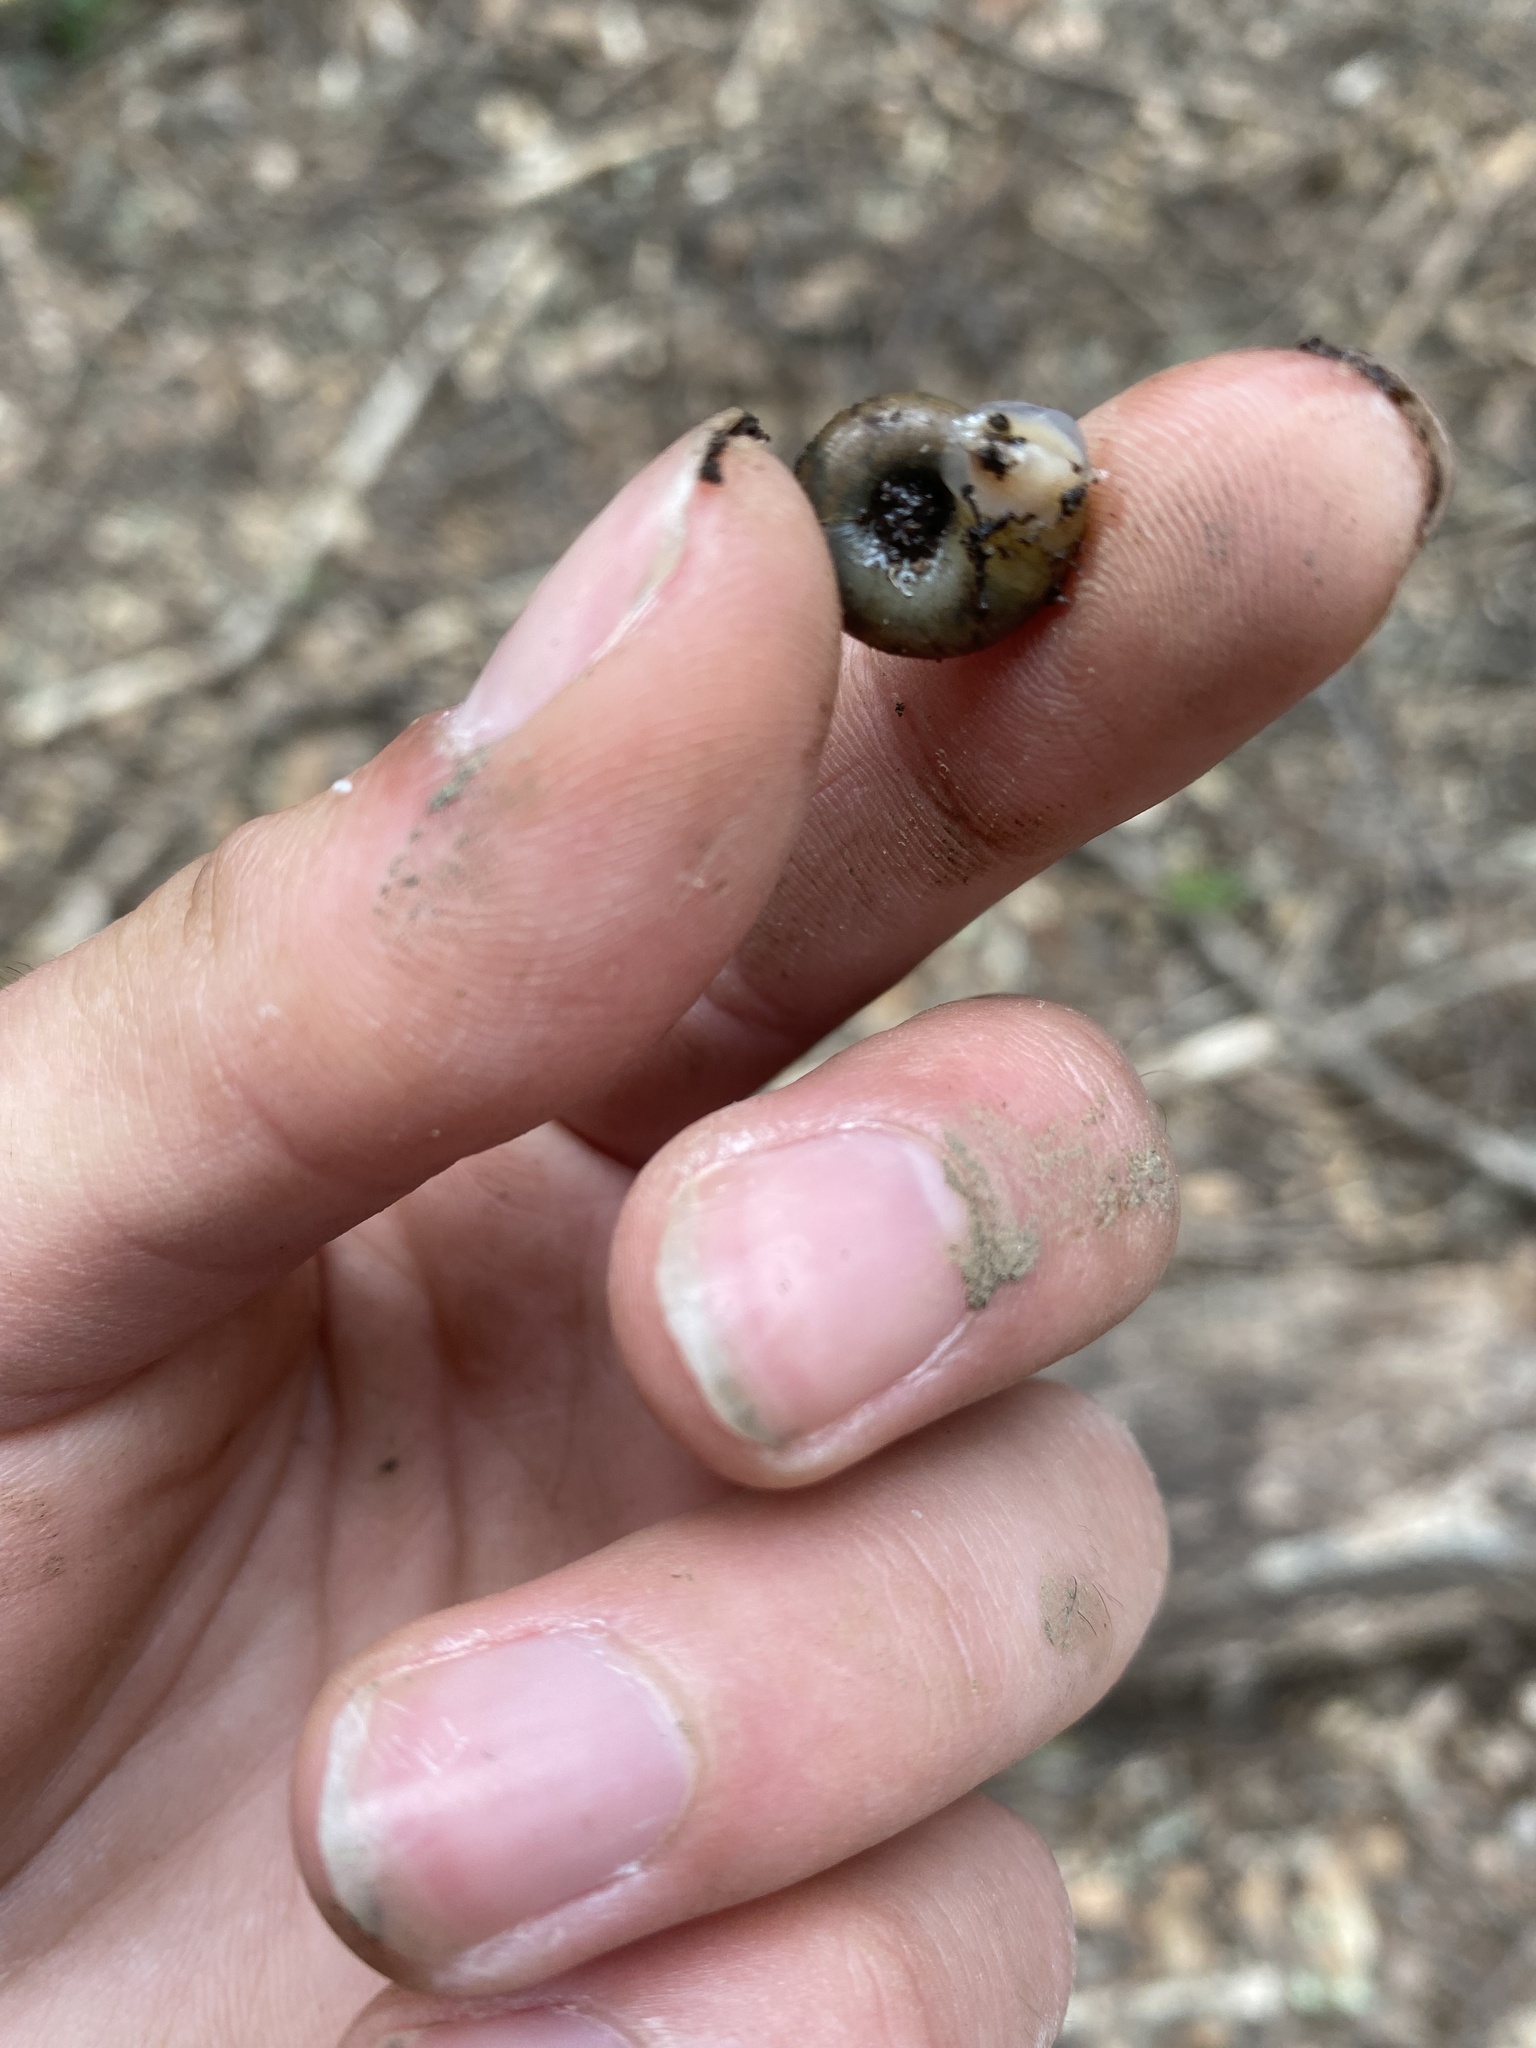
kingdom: Animalia
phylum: Mollusca
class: Gastropoda
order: Stylommatophora
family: Haplotrematidae
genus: Haplotrema
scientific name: Haplotrema minimum
